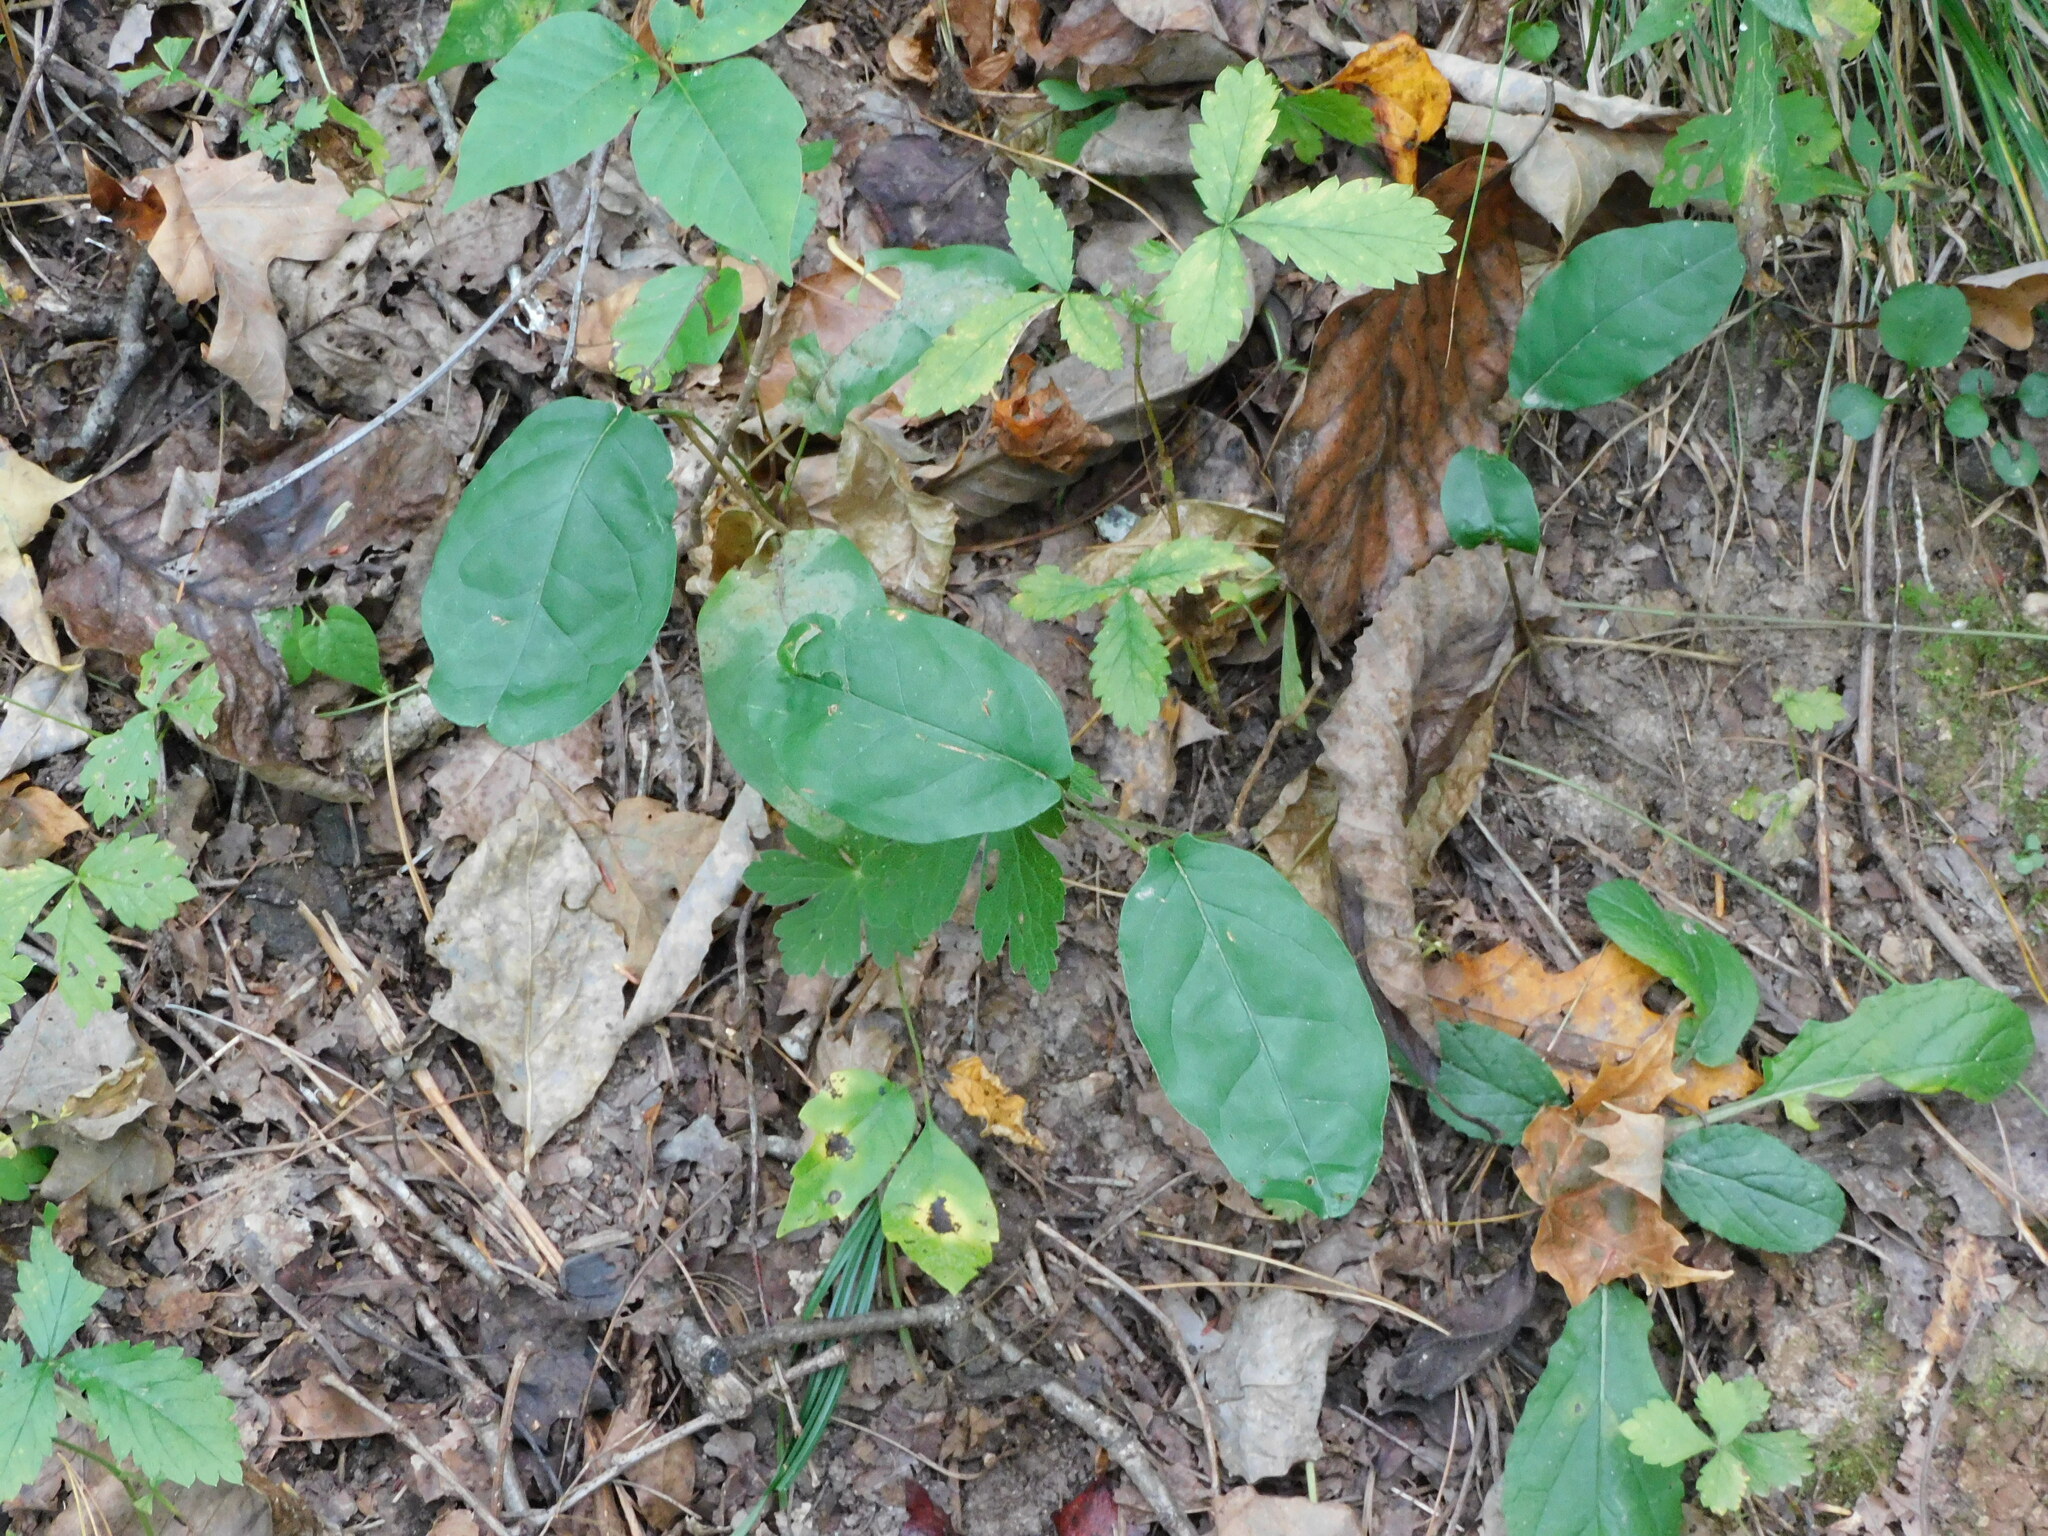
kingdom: Plantae
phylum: Tracheophyta
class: Magnoliopsida
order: Lamiales
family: Bignoniaceae
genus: Bignonia
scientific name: Bignonia capreolata
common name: Crossvine
